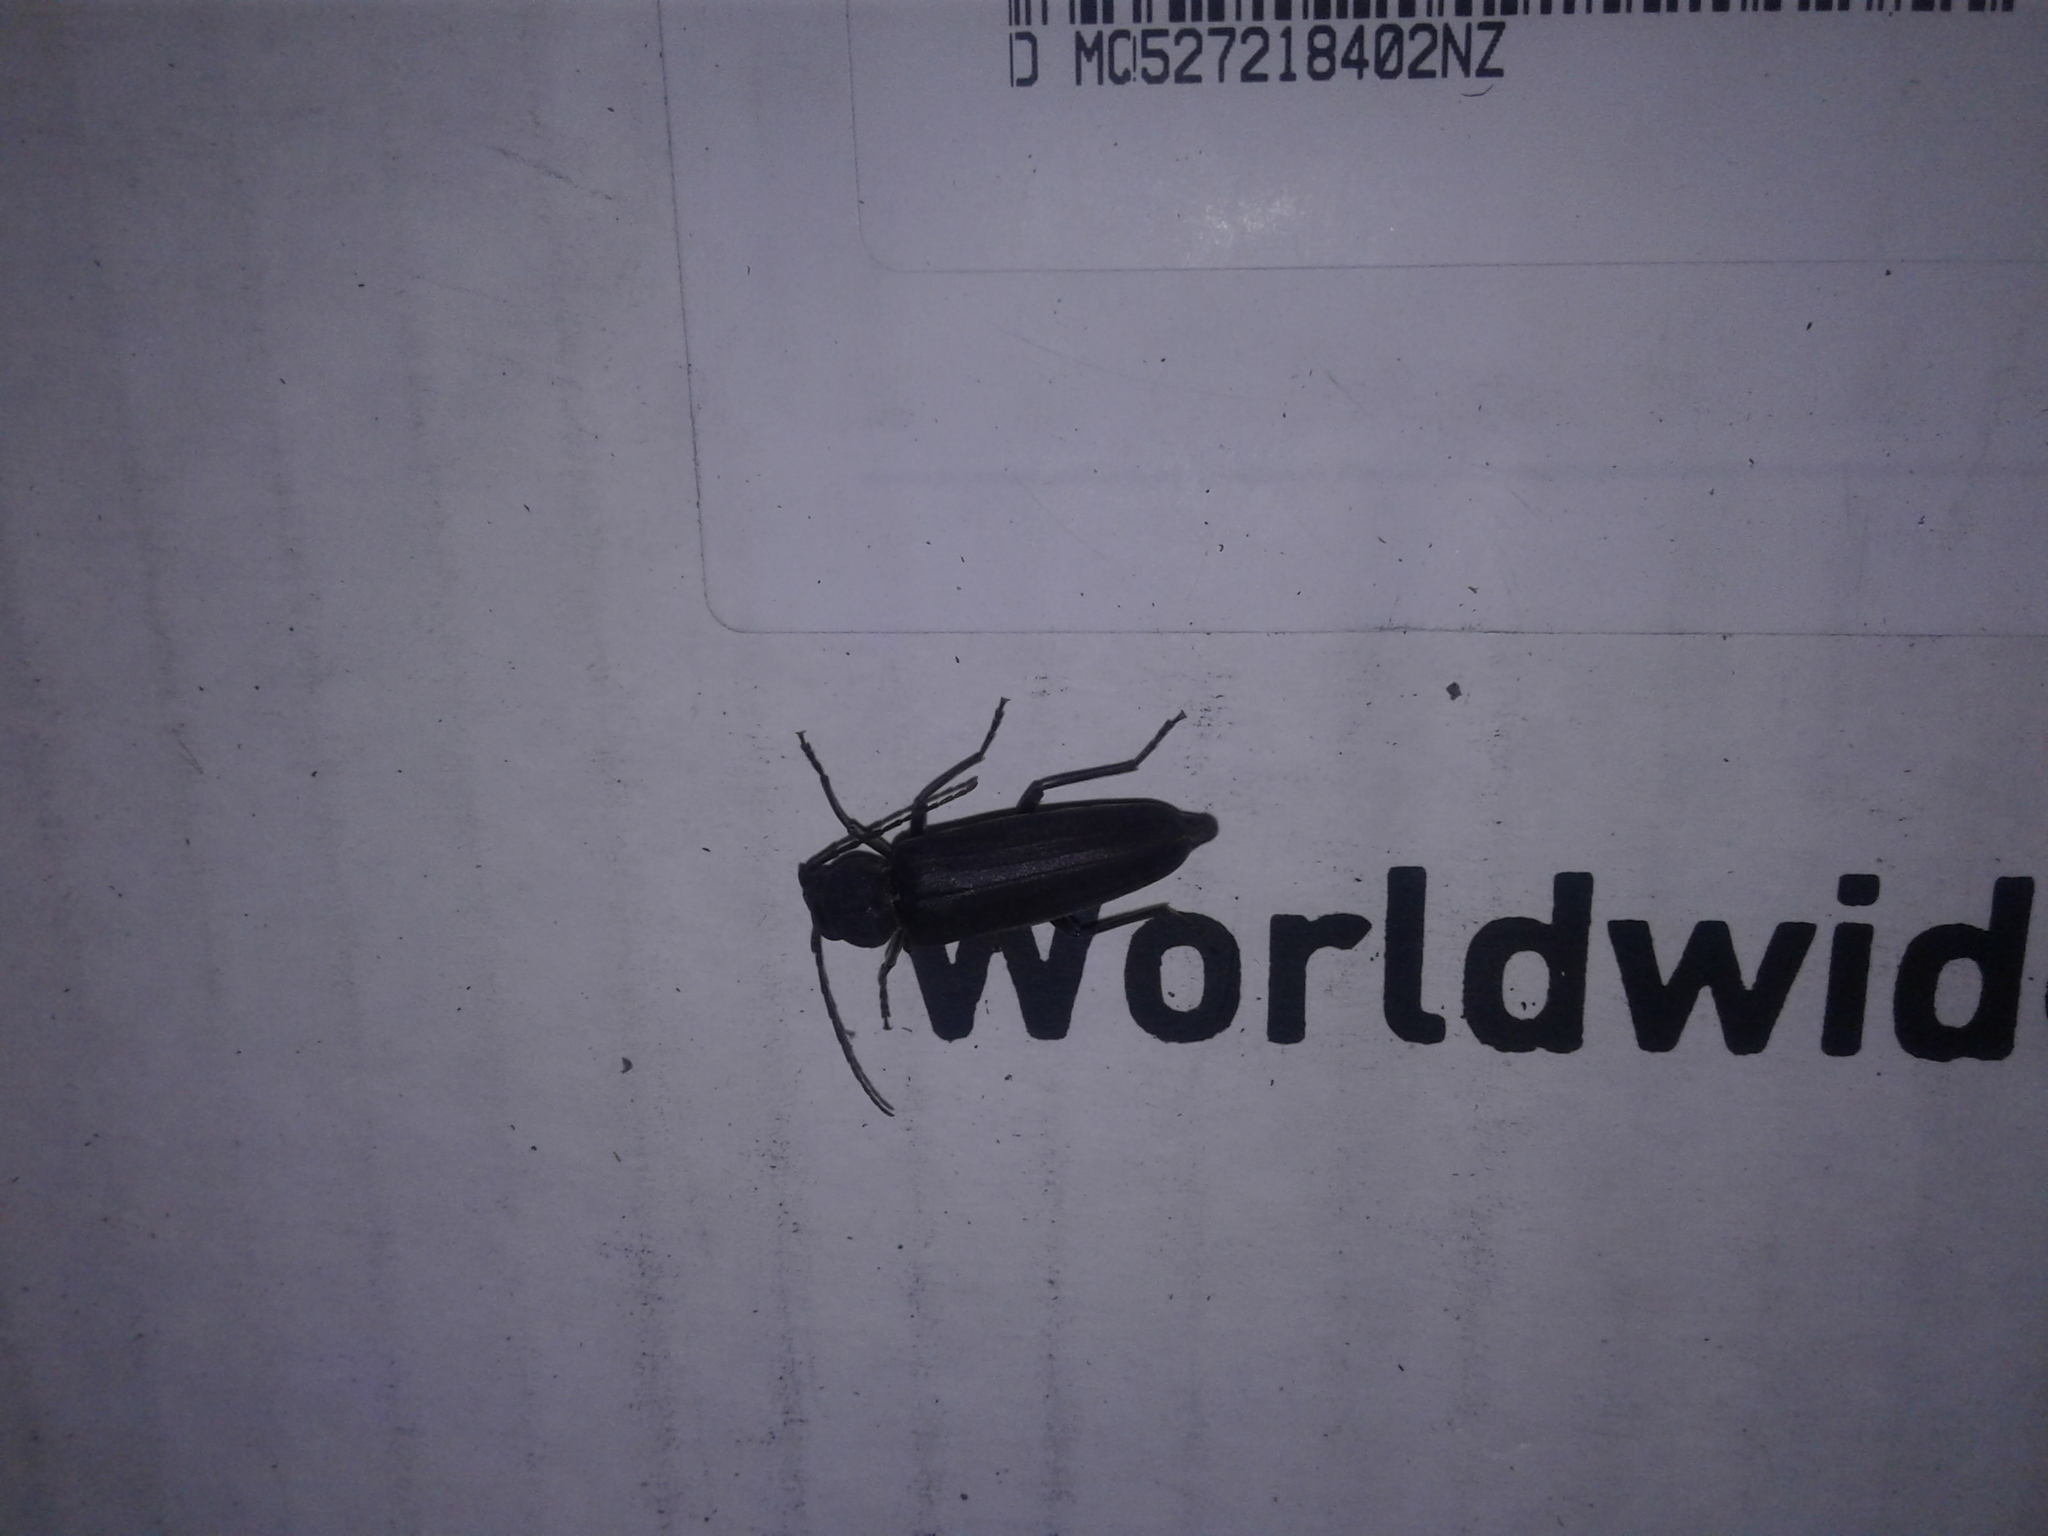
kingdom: Animalia
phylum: Arthropoda
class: Insecta
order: Coleoptera
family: Cerambycidae
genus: Arhopalus
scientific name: Arhopalus ferus
